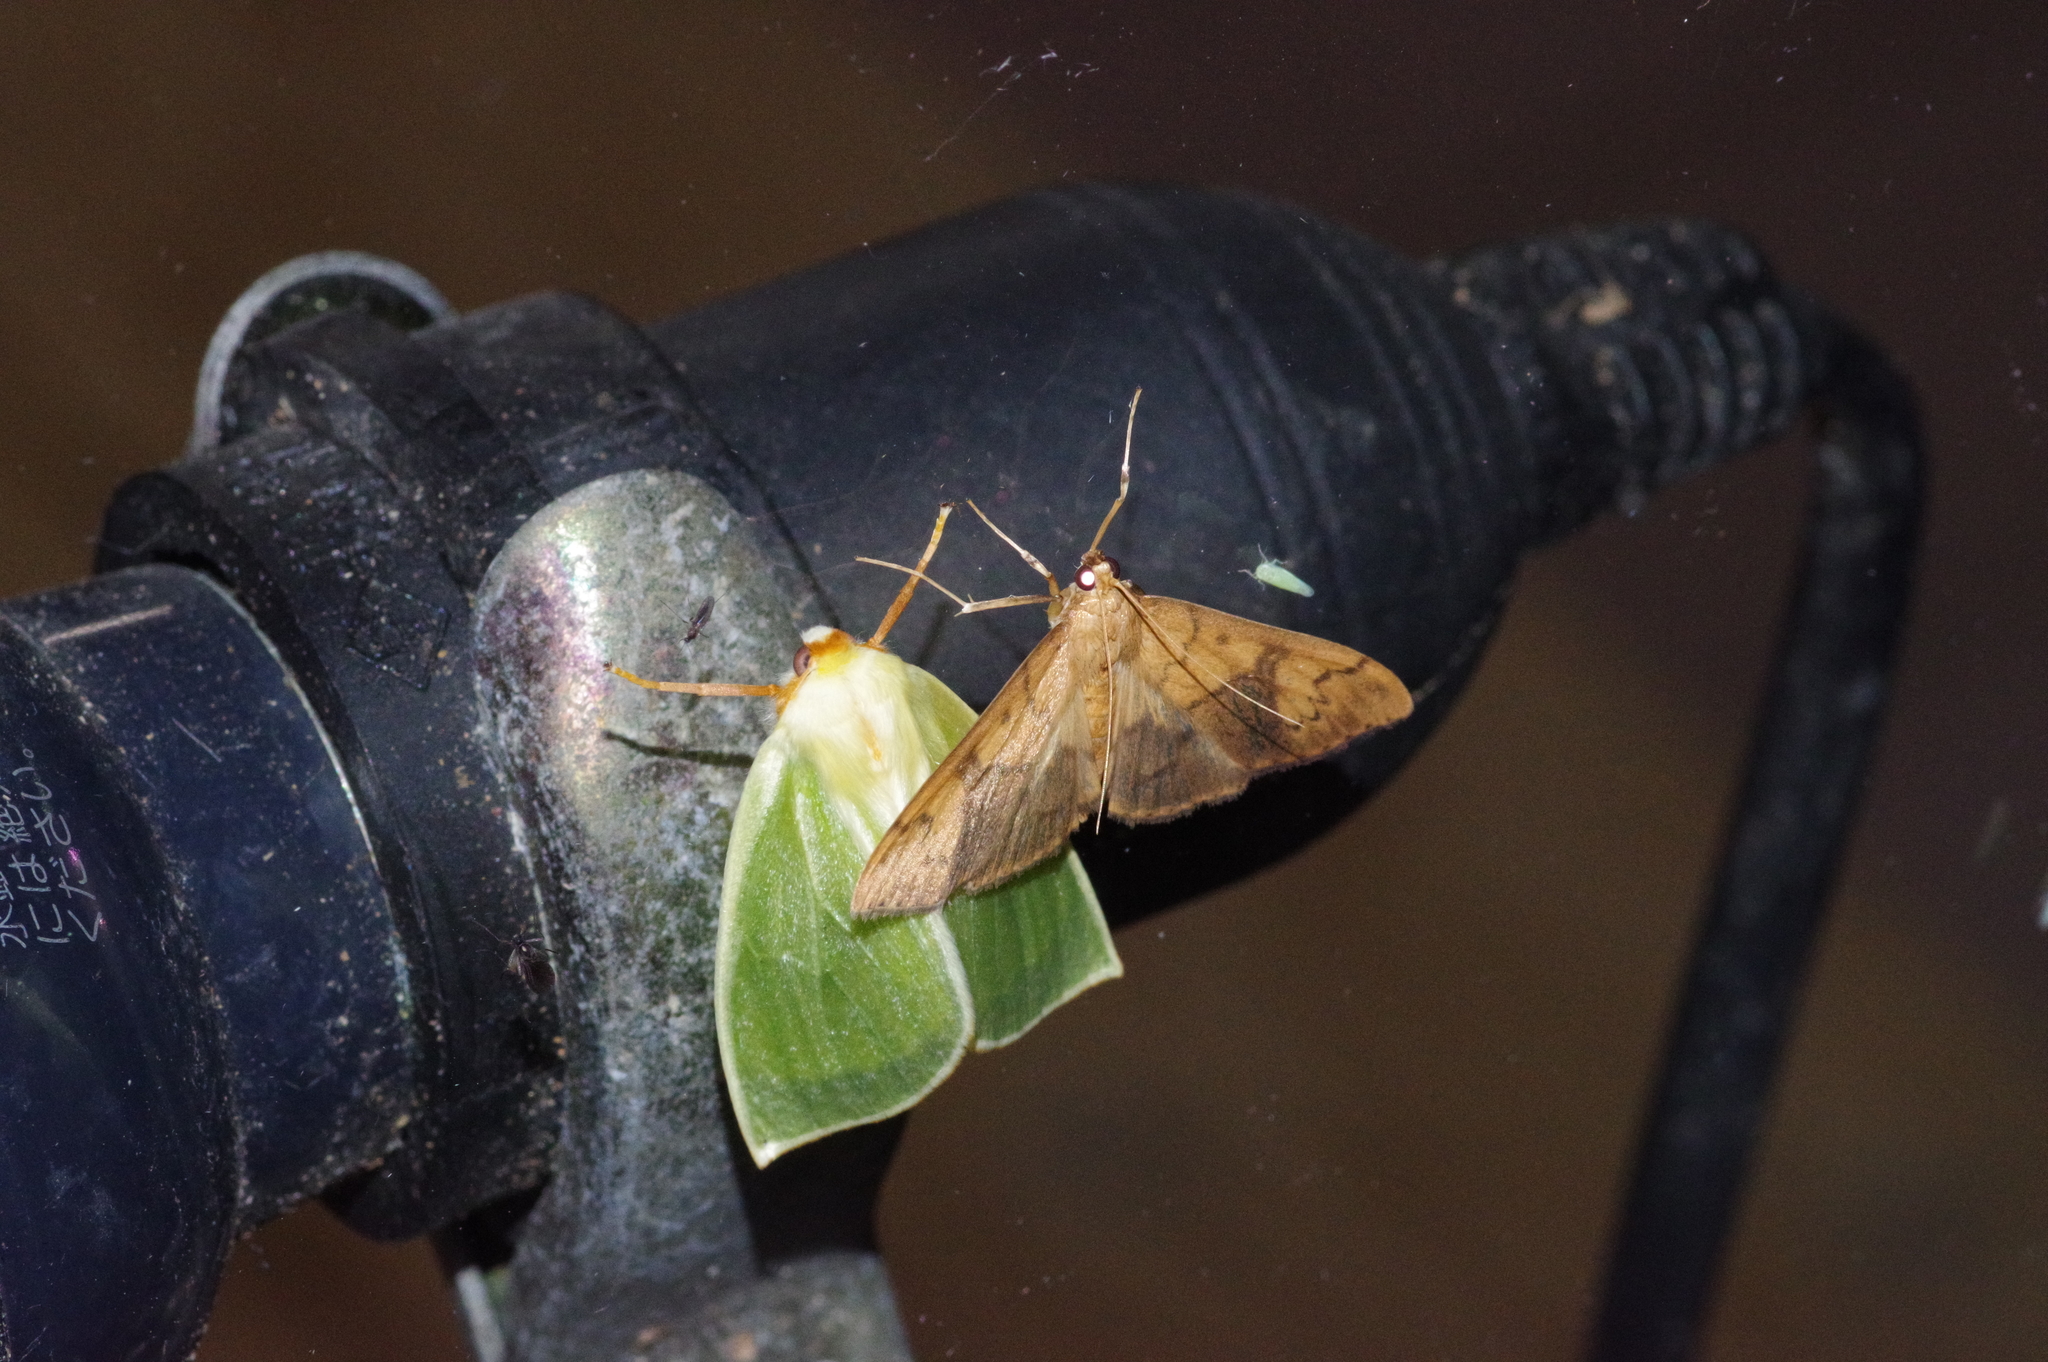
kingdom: Animalia
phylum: Arthropoda
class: Insecta
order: Lepidoptera
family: Crambidae
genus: Patania
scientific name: Patania
